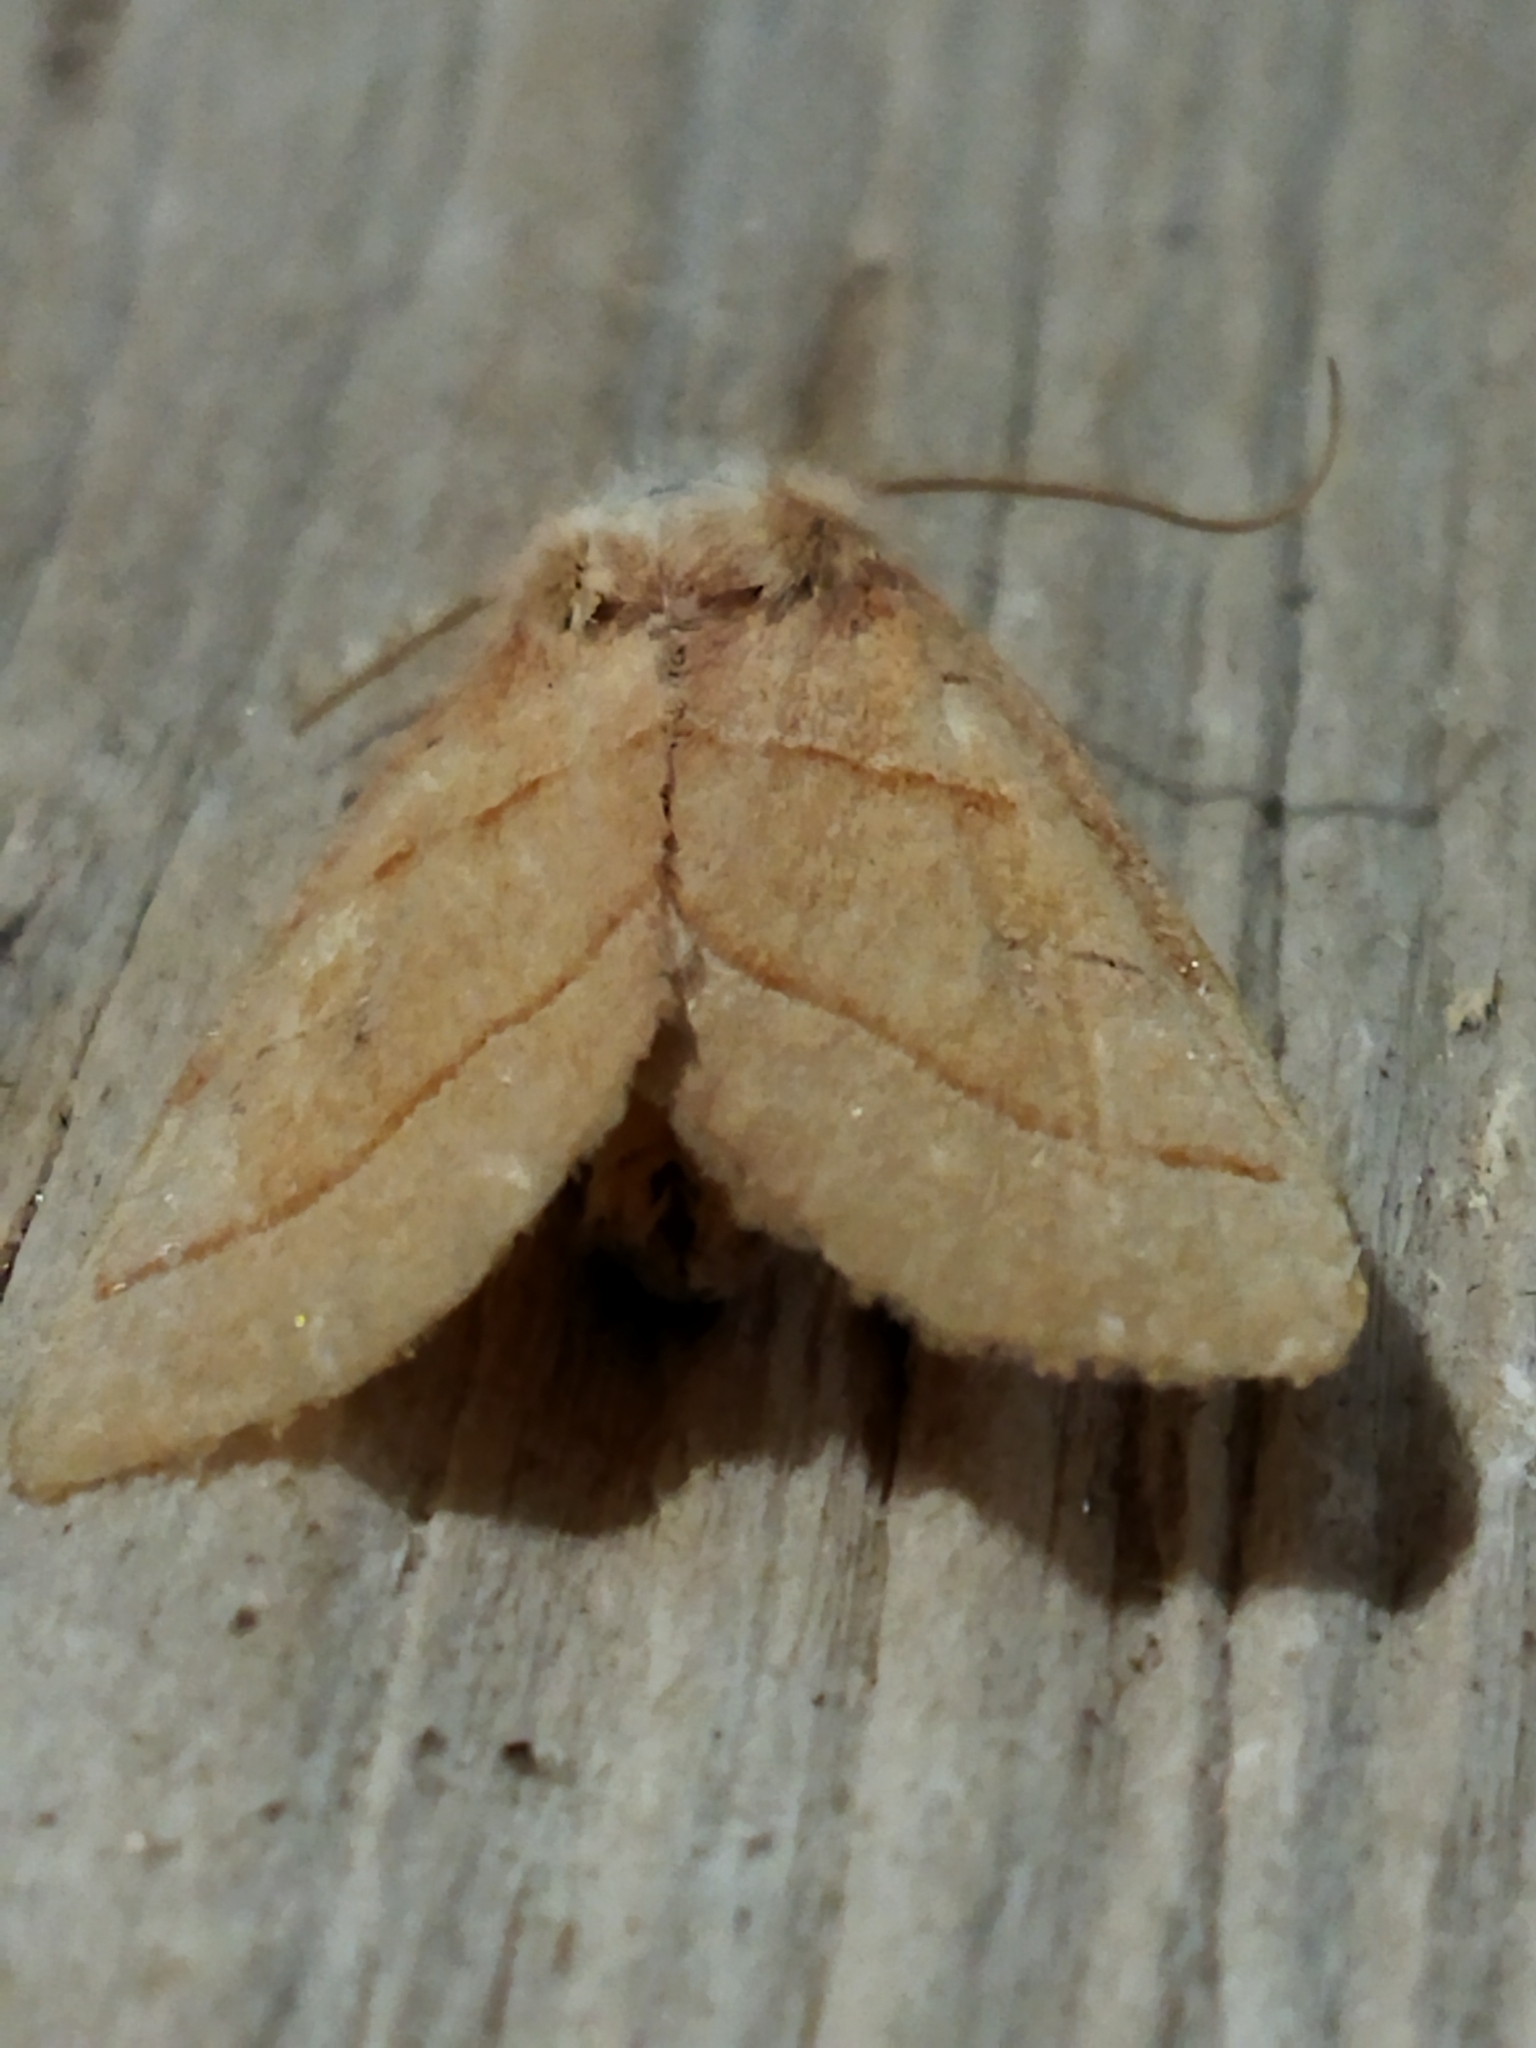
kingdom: Animalia
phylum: Arthropoda
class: Insecta
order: Lepidoptera
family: Noctuidae
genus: Atethmia
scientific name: Atethmia centrago
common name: Centre-barred sallow
